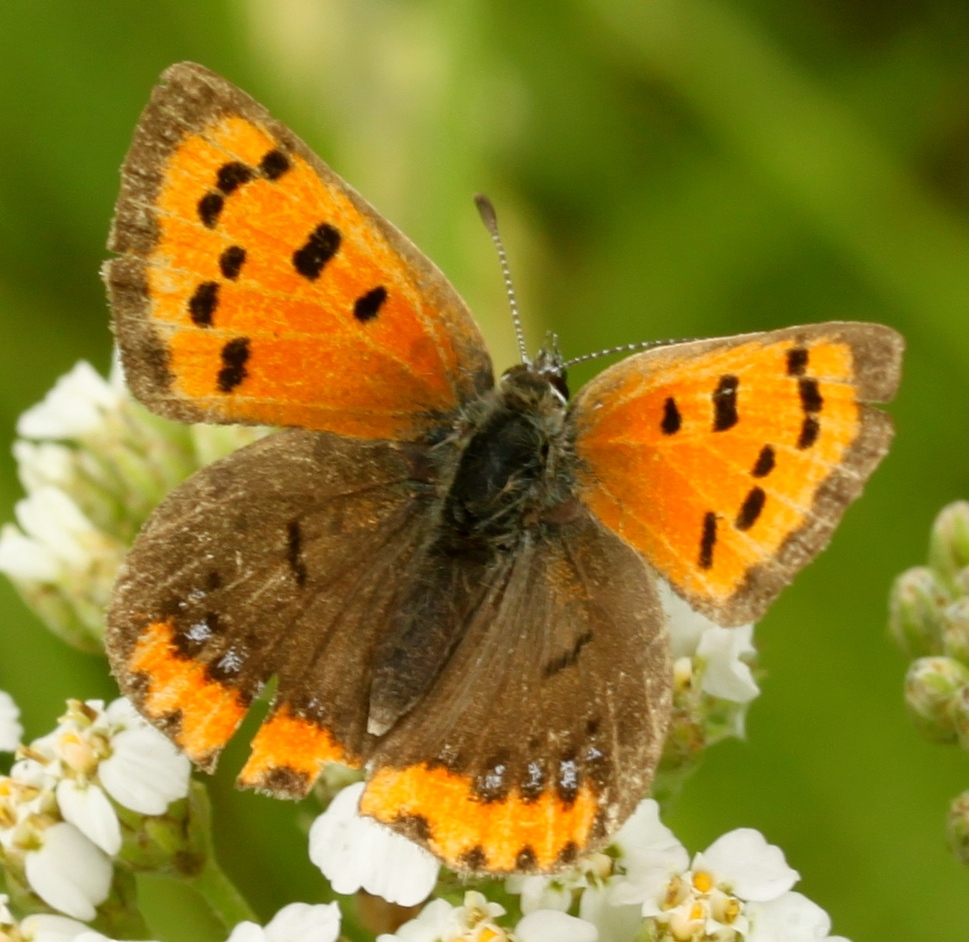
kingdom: Animalia
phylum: Arthropoda
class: Insecta
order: Lepidoptera
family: Lycaenidae
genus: Lycaena
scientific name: Lycaena hypophlaeas
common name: American copper
